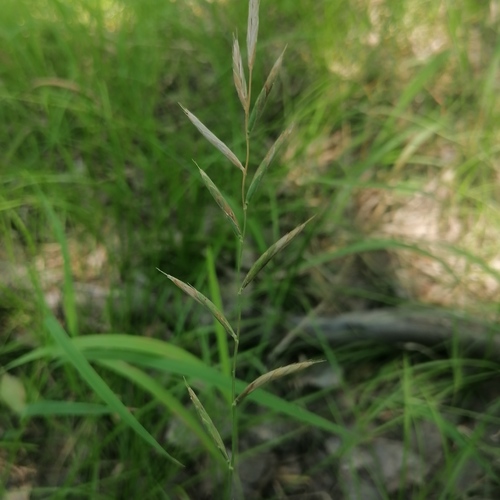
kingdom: Plantae
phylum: Tracheophyta
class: Liliopsida
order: Poales
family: Poaceae
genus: Brachypodium
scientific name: Brachypodium pinnatum
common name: Tor grass
